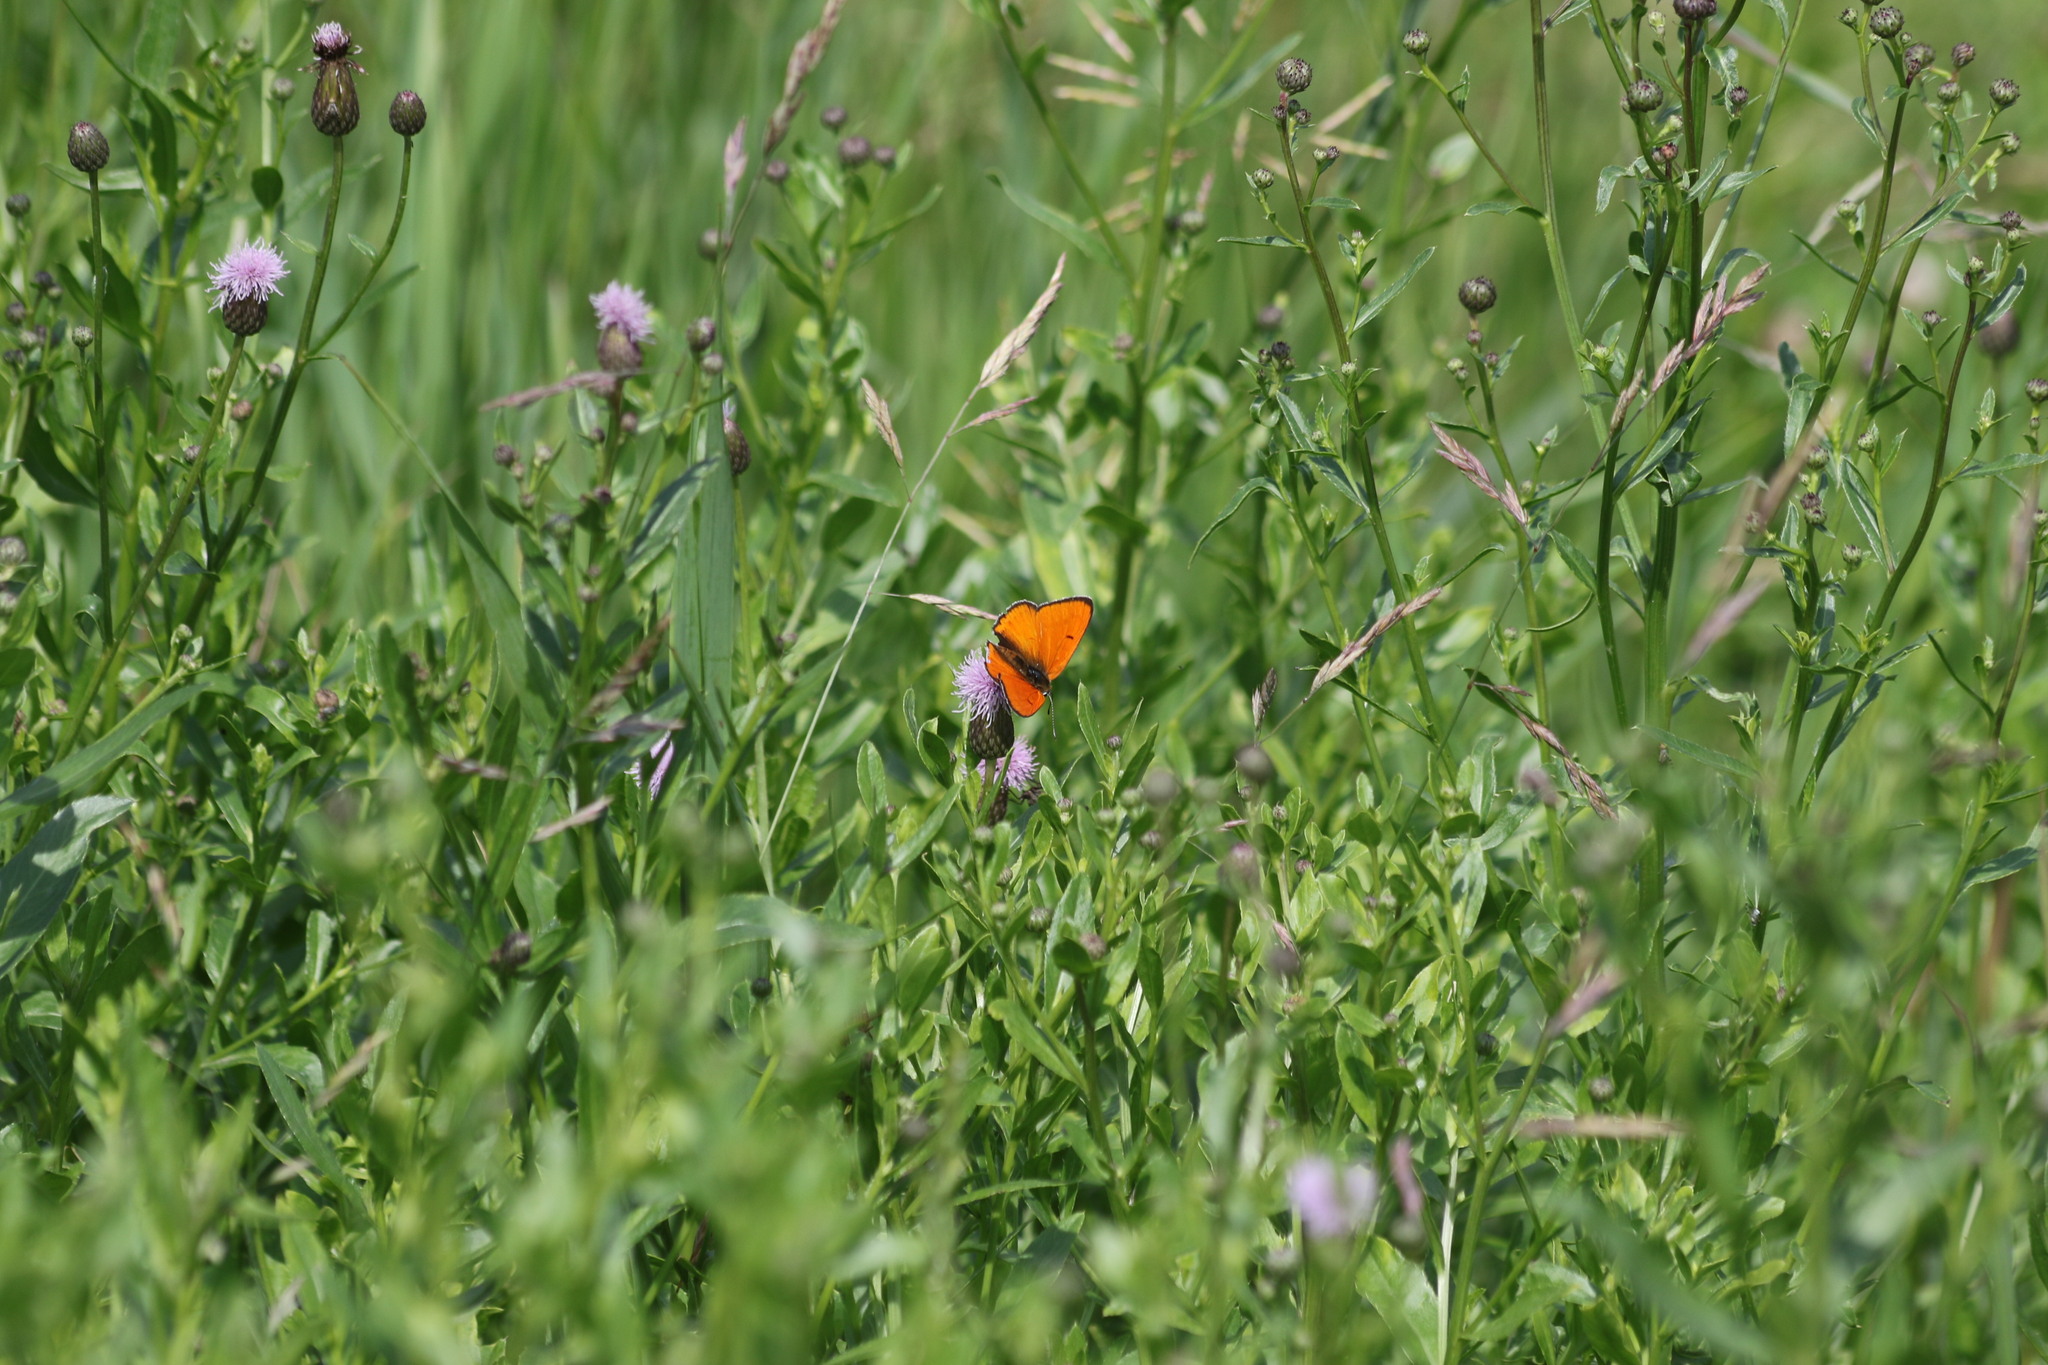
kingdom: Animalia
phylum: Arthropoda
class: Insecta
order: Lepidoptera
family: Lycaenidae
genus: Lycaena
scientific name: Lycaena dispar
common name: Large copper
